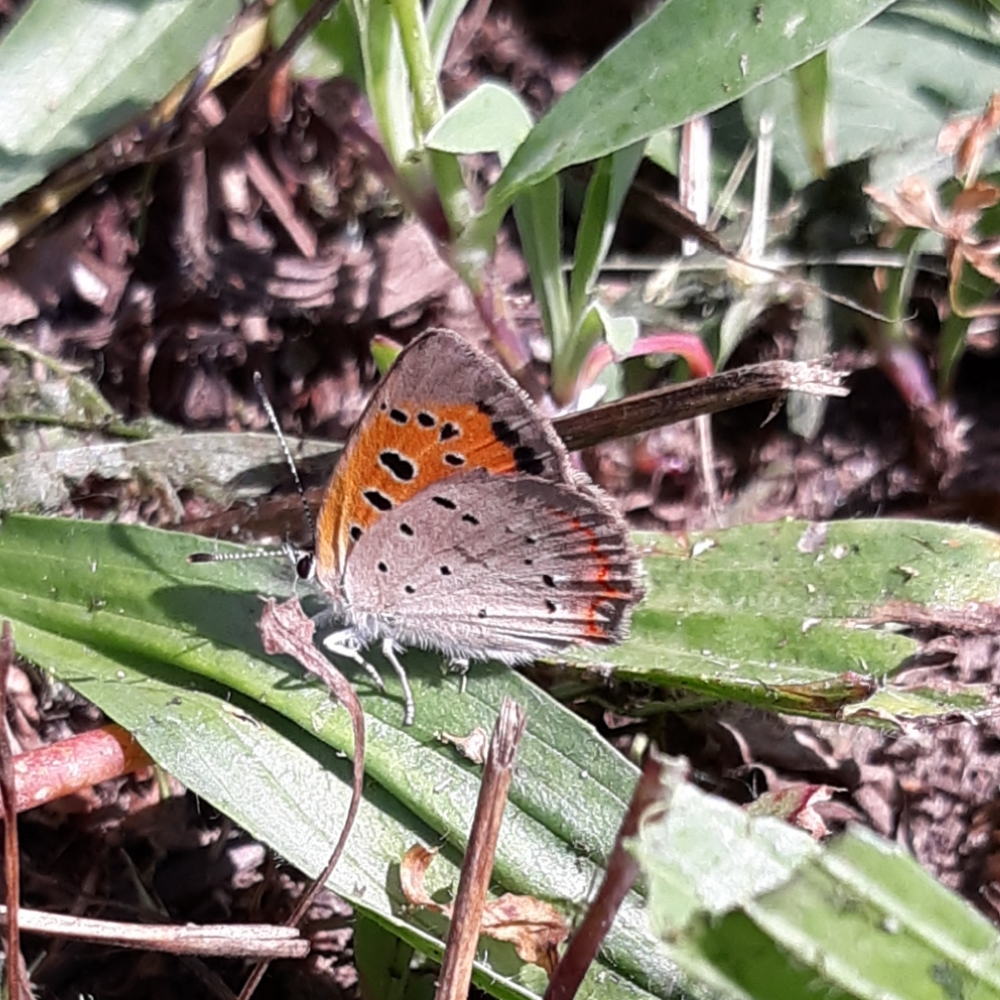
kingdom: Animalia
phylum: Arthropoda
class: Insecta
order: Lepidoptera
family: Lycaenidae
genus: Lycaena
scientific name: Lycaena hypophlaeas
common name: American copper
